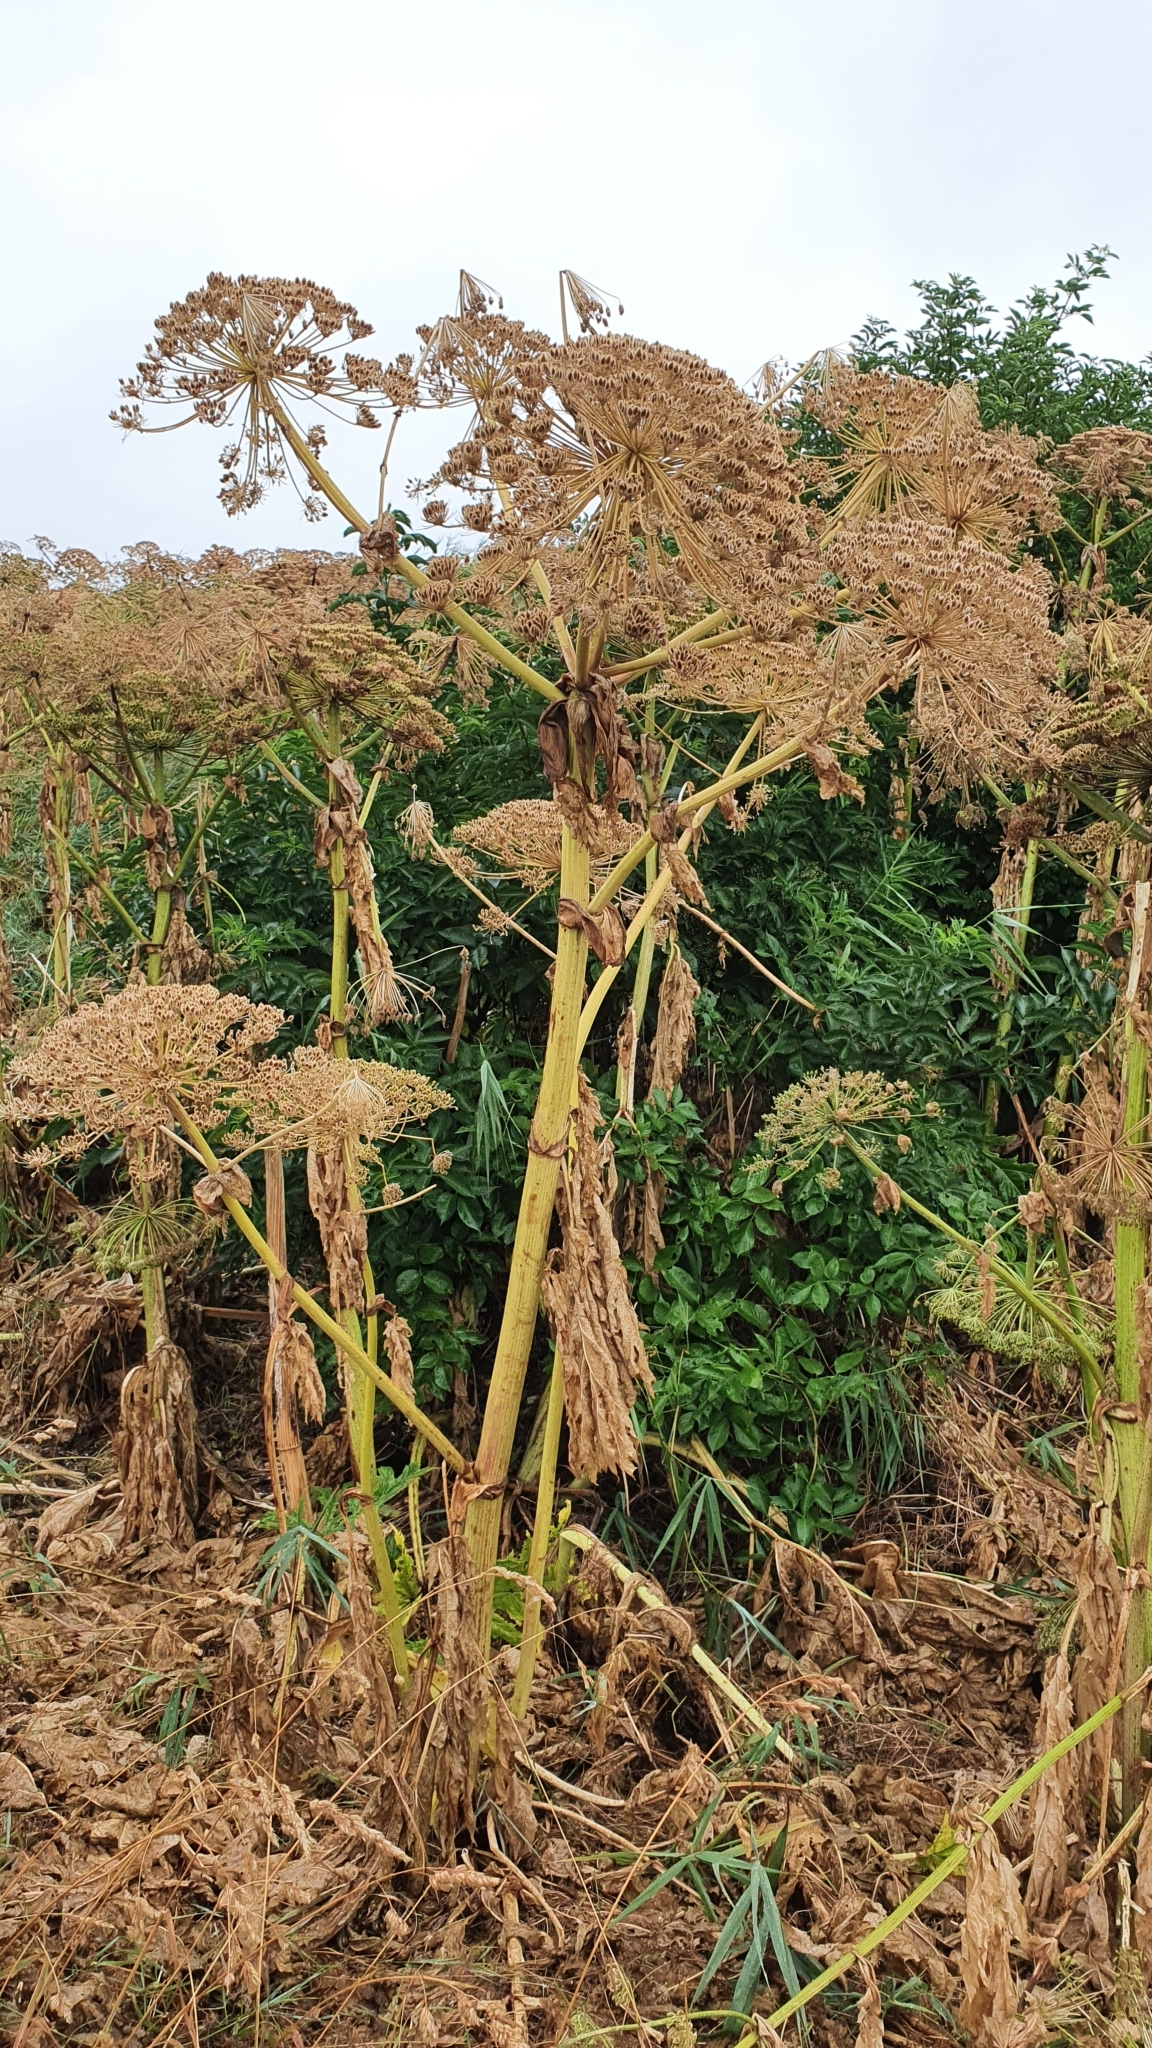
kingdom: Plantae
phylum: Tracheophyta
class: Magnoliopsida
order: Apiales
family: Apiaceae
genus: Heracleum
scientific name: Heracleum mantegazzianum
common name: Giant hogweed
